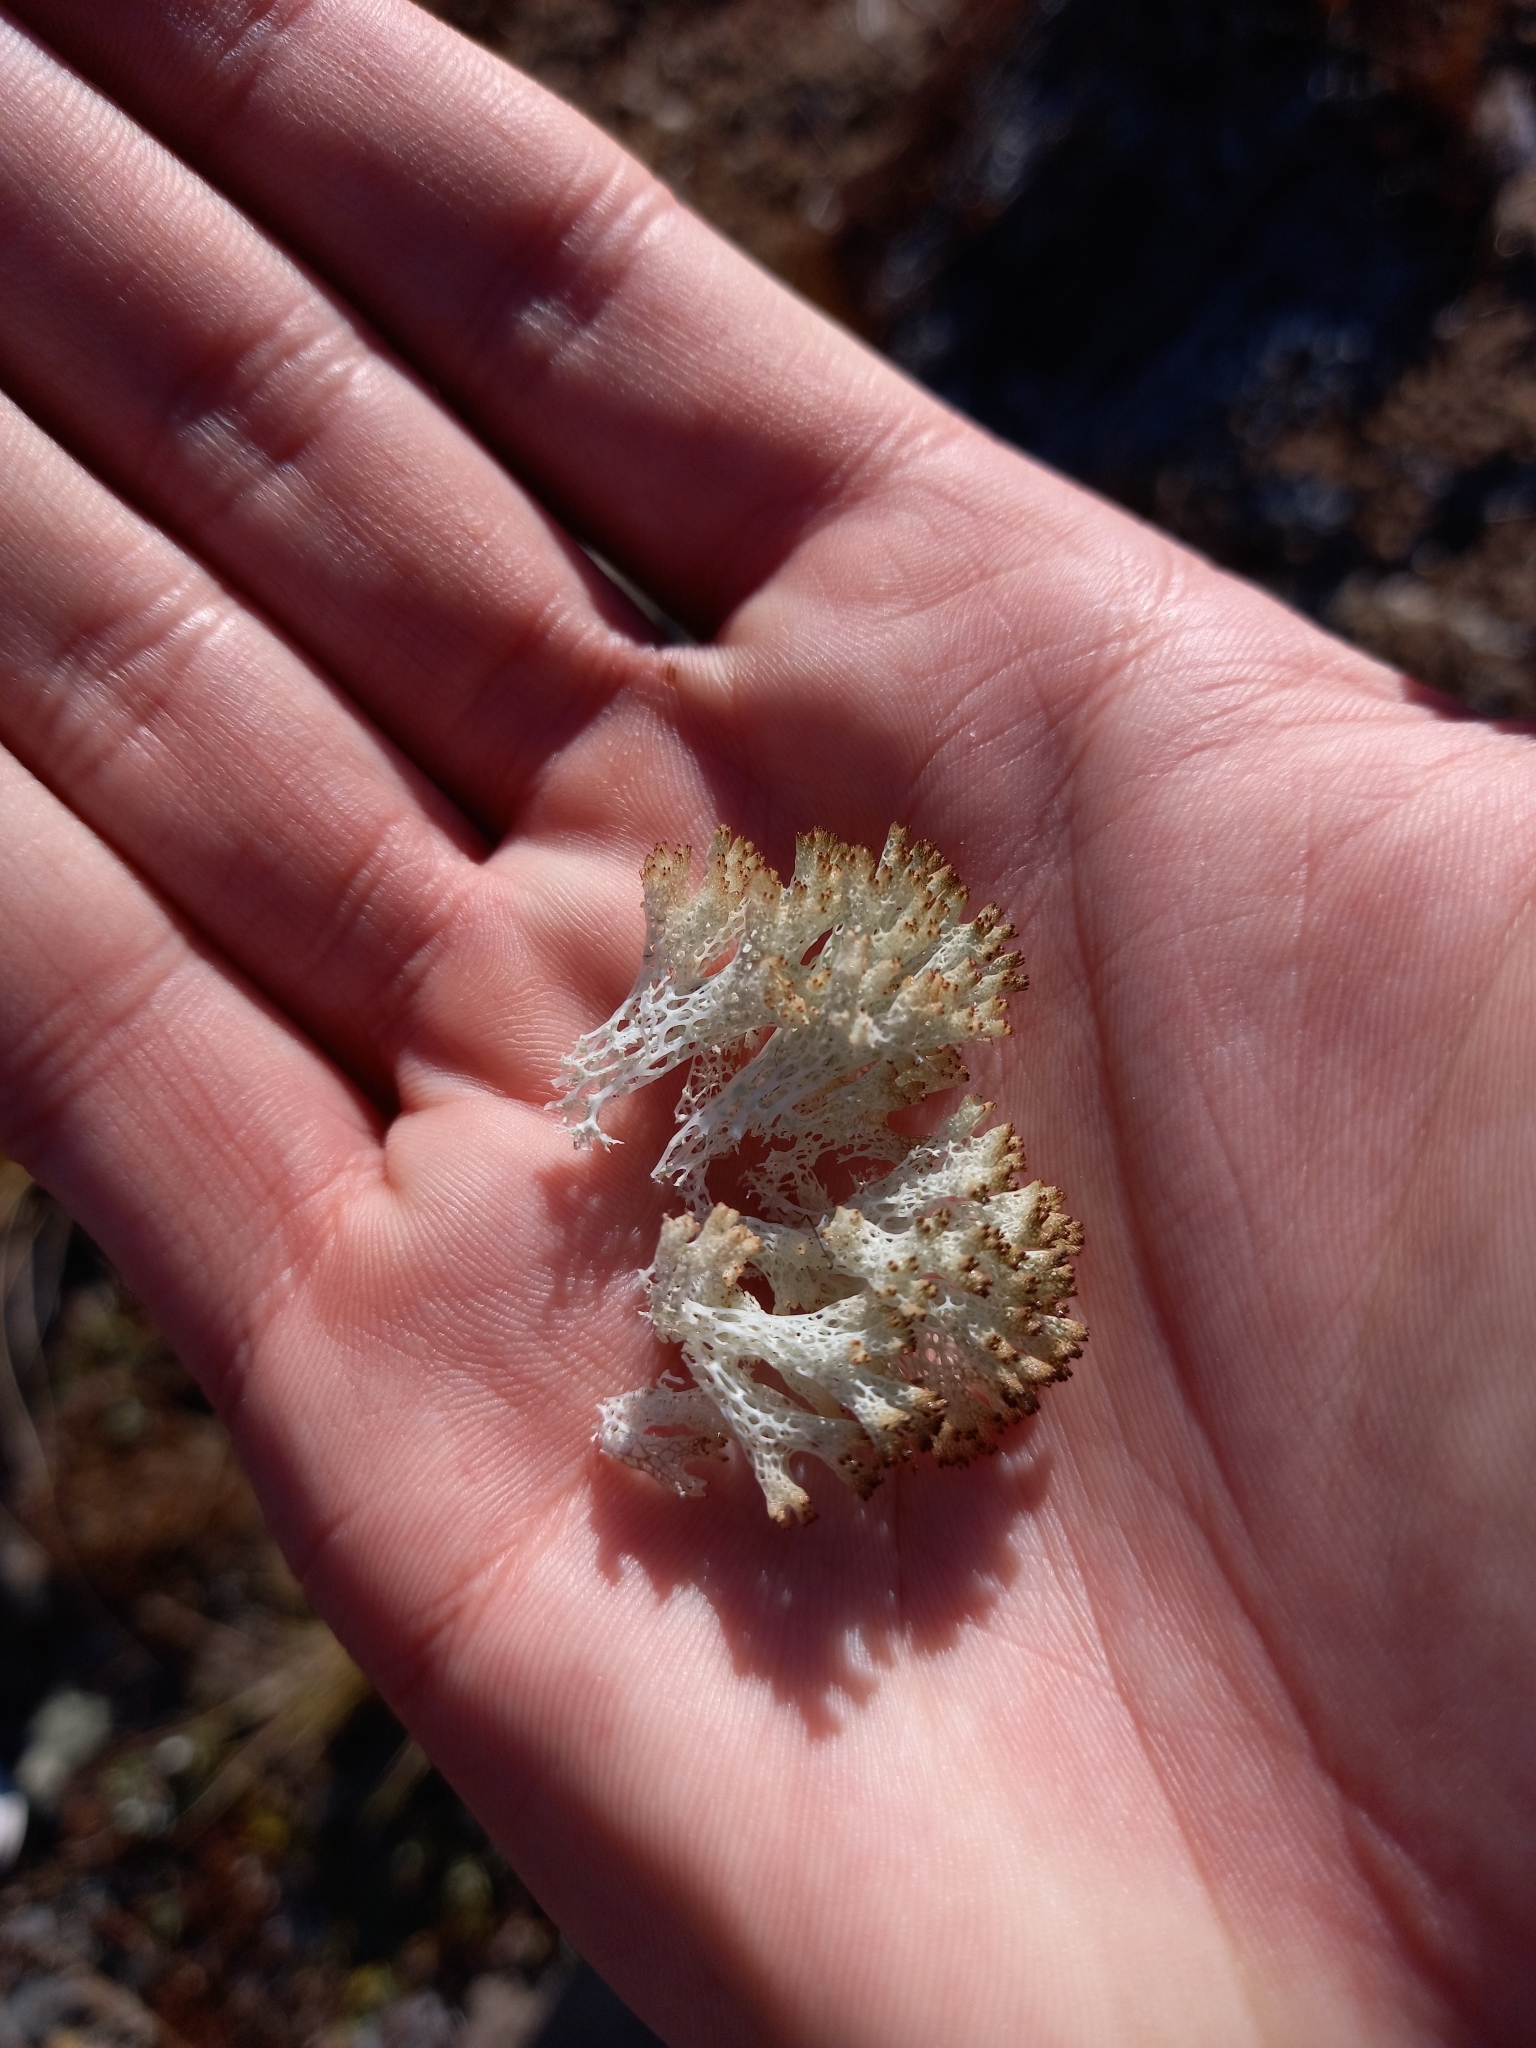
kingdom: Fungi
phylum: Ascomycota
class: Lecanoromycetes
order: Lecanorales
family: Cladoniaceae
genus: Pulchrocladia
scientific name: Pulchrocladia retipora
